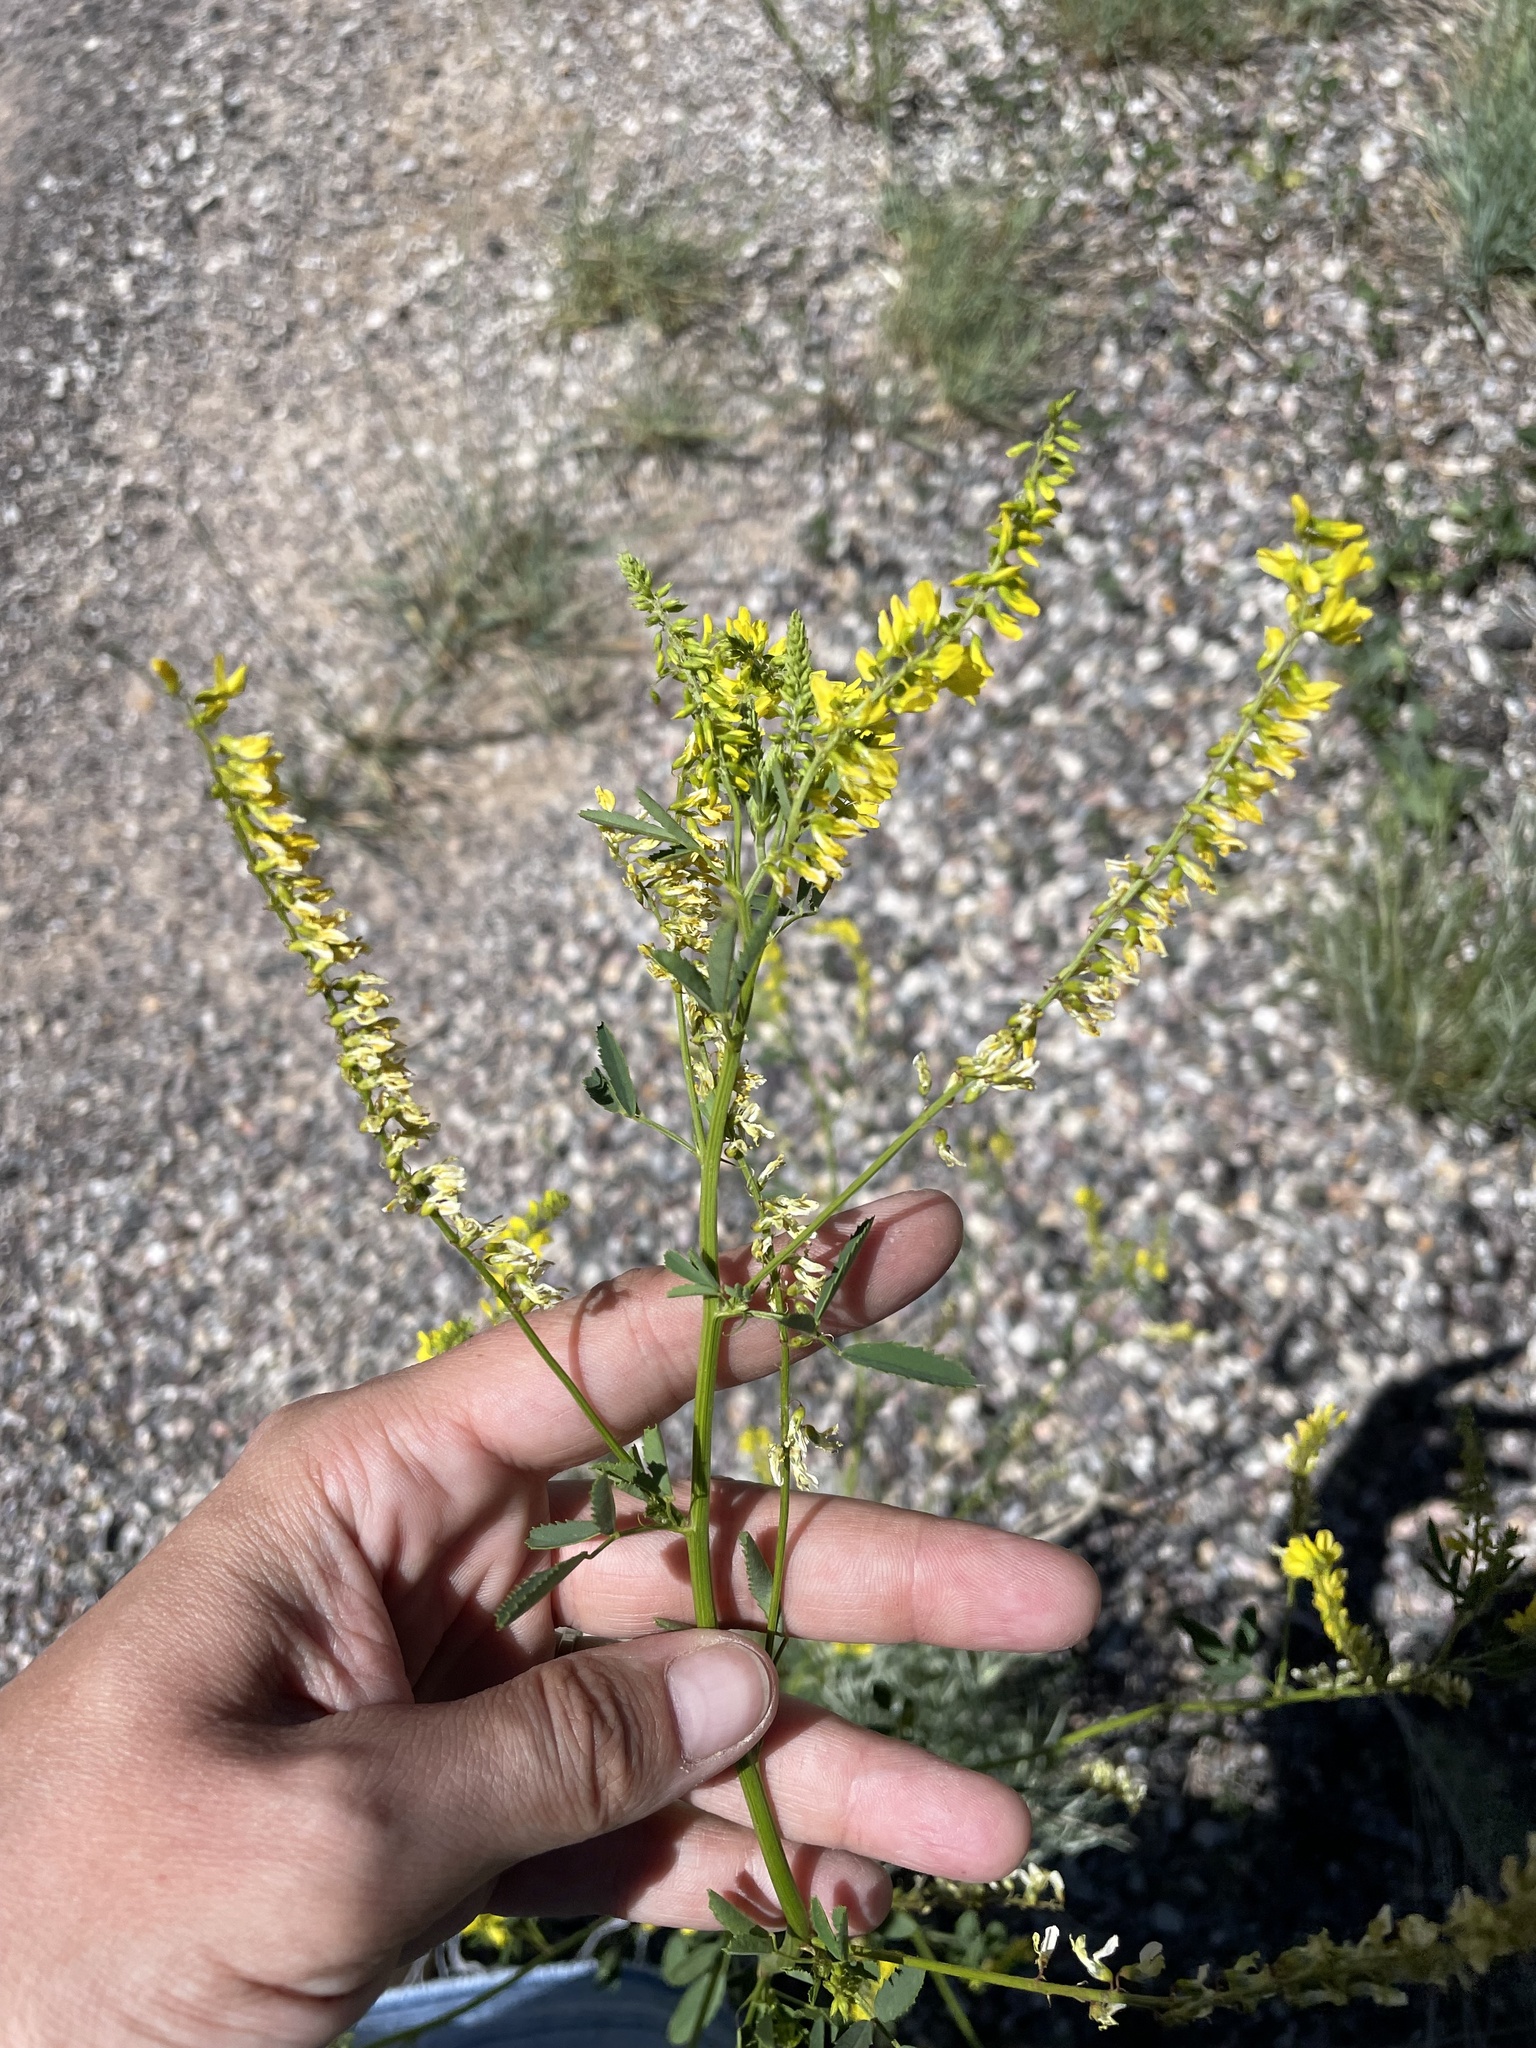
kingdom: Plantae
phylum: Tracheophyta
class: Magnoliopsida
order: Fabales
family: Fabaceae
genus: Melilotus
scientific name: Melilotus officinalis
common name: Sweetclover
